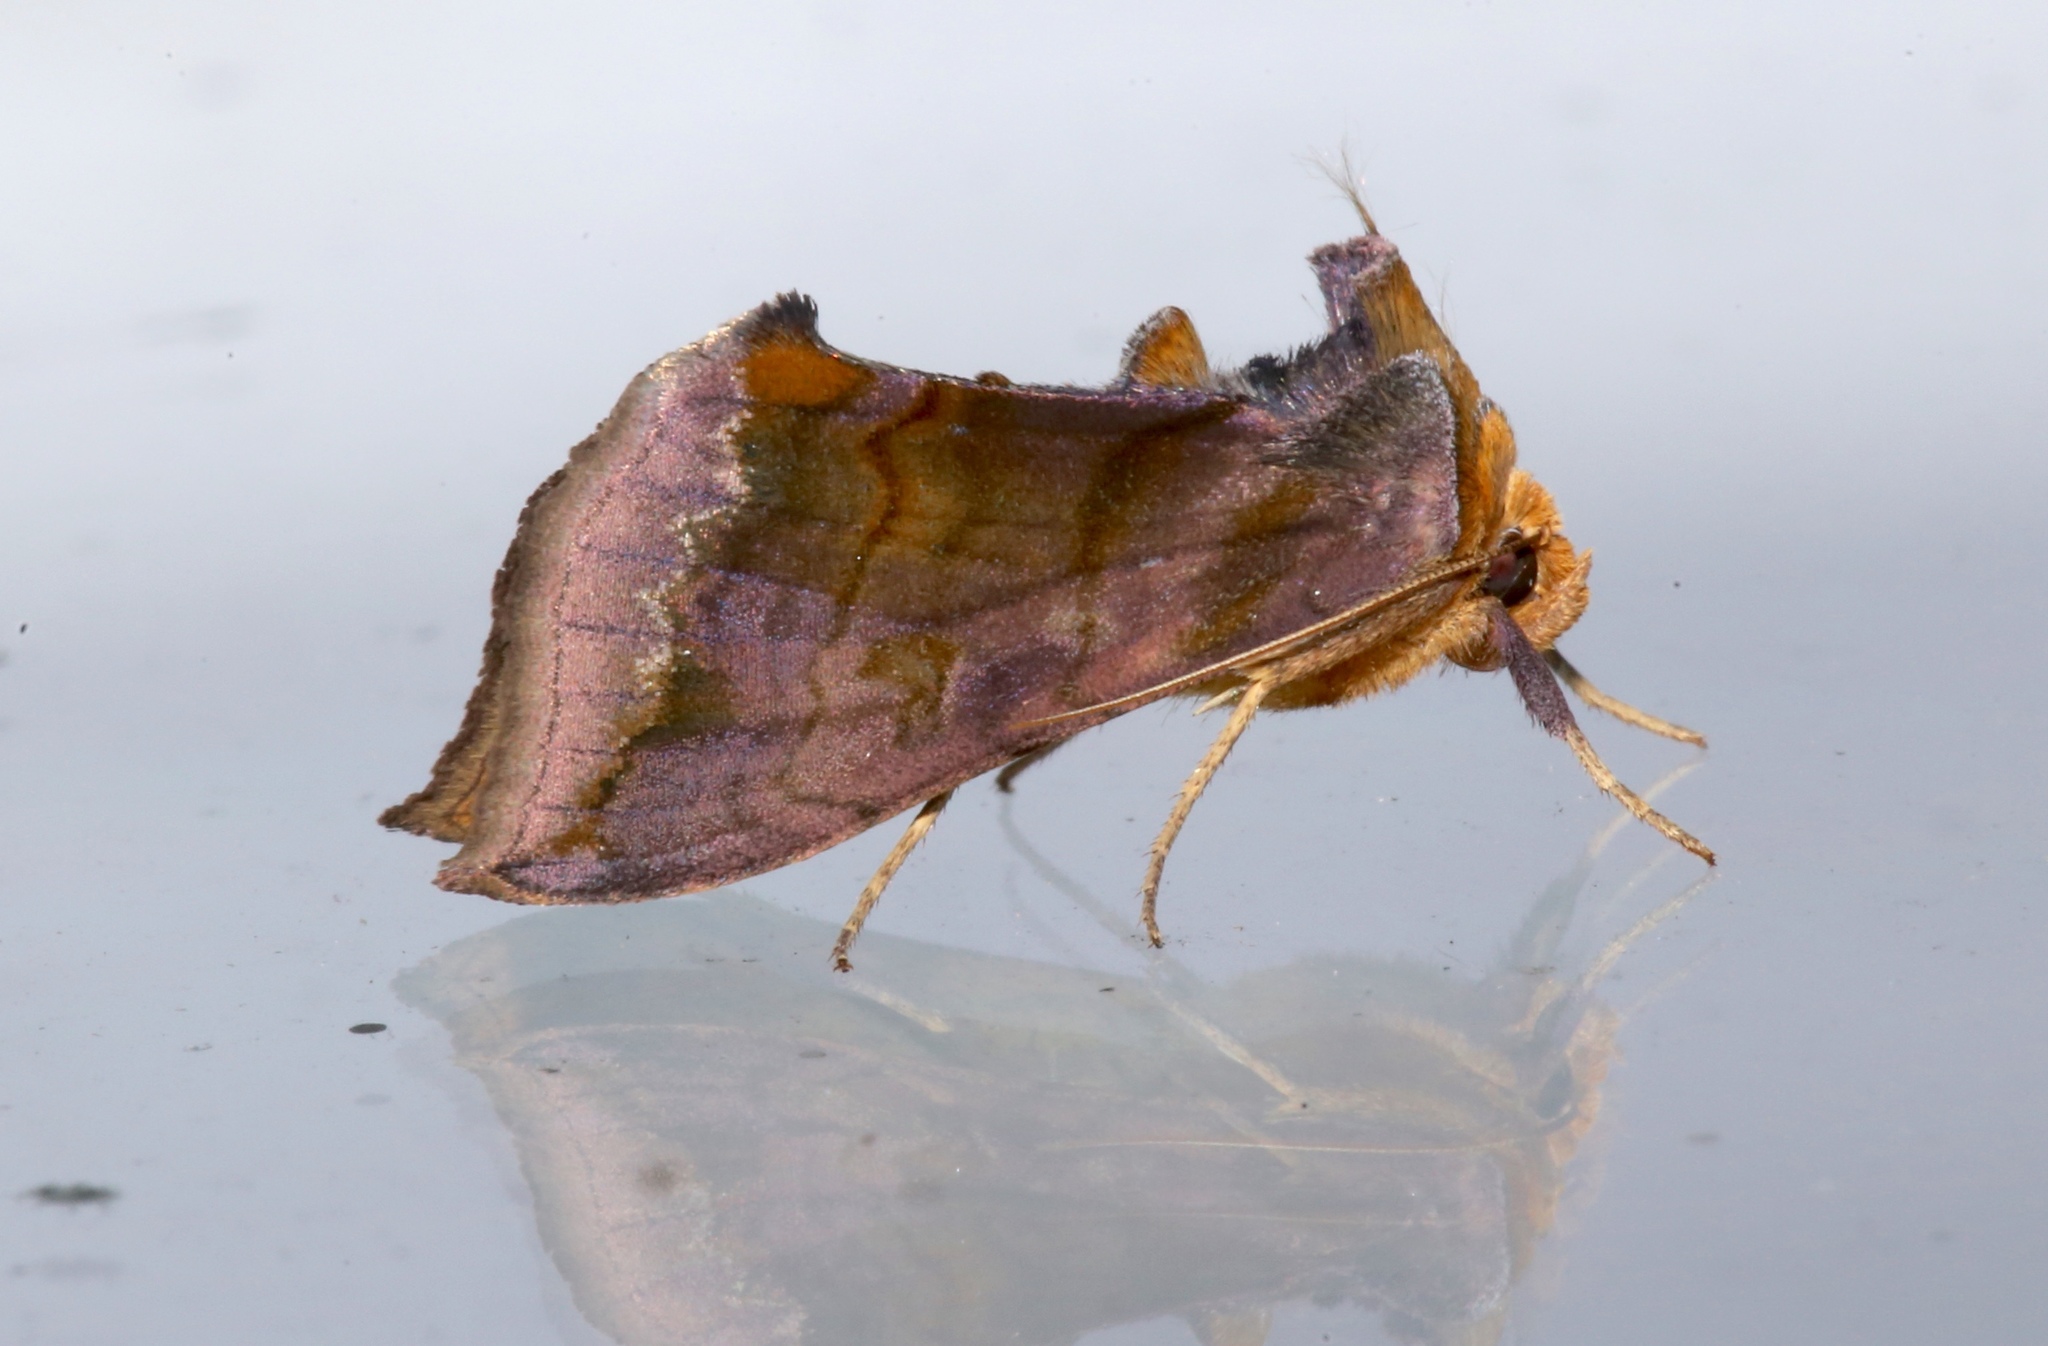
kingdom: Animalia
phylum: Arthropoda
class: Insecta
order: Lepidoptera
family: Noctuidae
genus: Allagrapha
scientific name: Allagrapha aerea
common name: Unspotted looper moth
